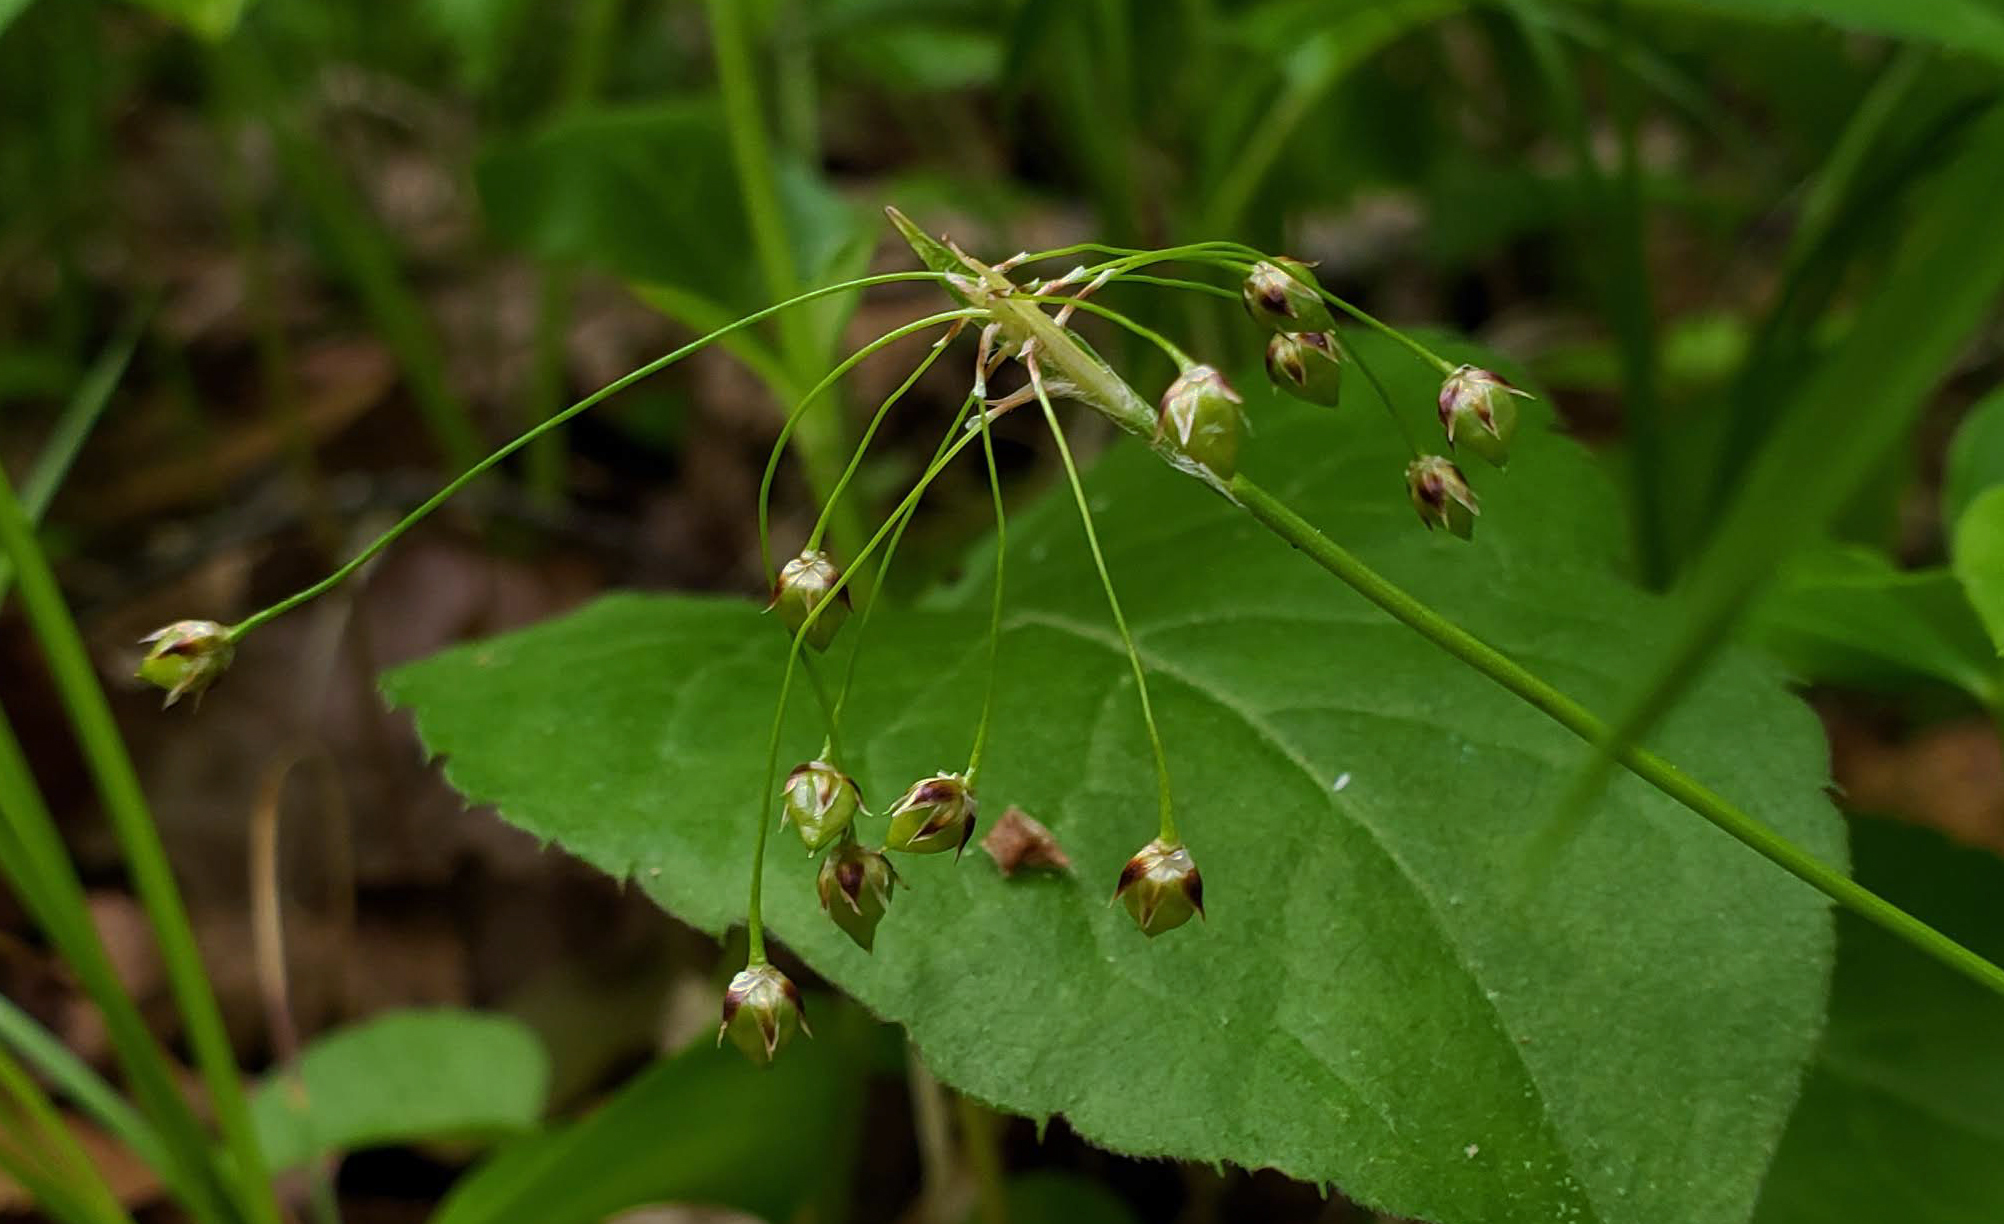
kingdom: Plantae
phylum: Tracheophyta
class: Liliopsida
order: Poales
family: Juncaceae
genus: Luzula
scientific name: Luzula acuminata
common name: Hairy woodrush
